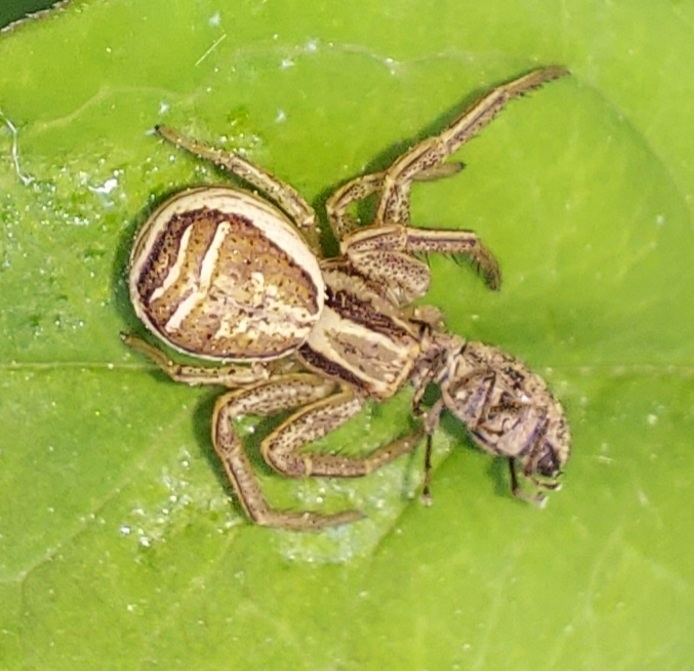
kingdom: Animalia
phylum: Arthropoda
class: Arachnida
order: Araneae
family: Thomisidae
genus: Xysticus
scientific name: Xysticus ulmi
